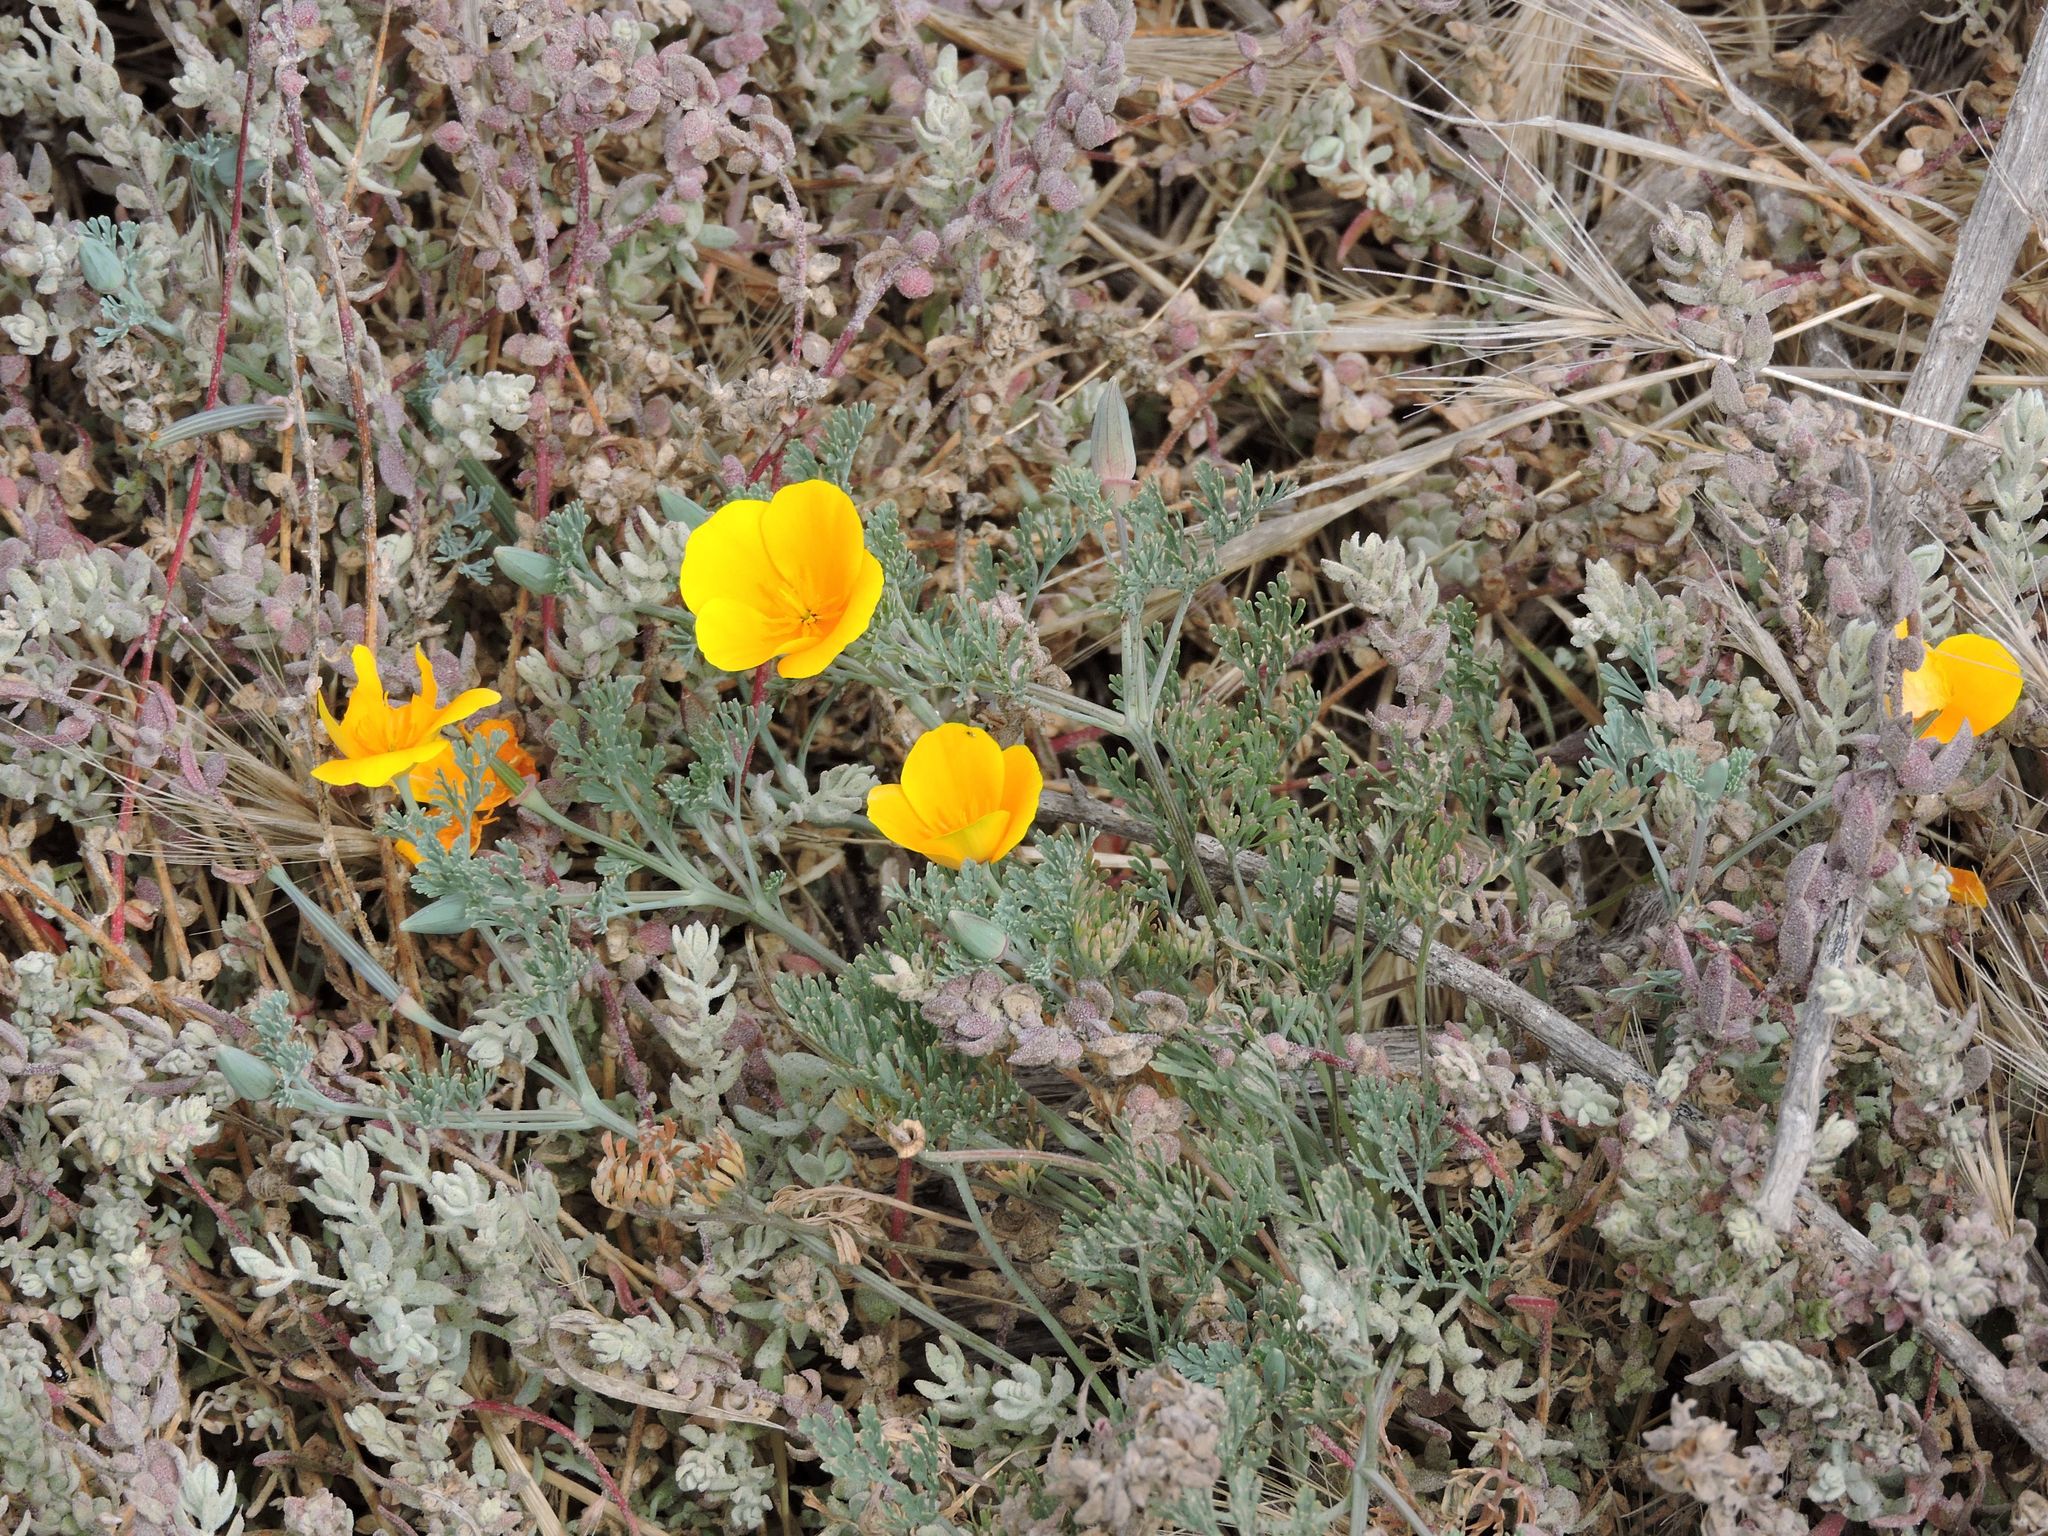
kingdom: Plantae
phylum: Tracheophyta
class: Magnoliopsida
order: Ranunculales
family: Papaveraceae
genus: Eschscholzia
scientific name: Eschscholzia californica
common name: California poppy
